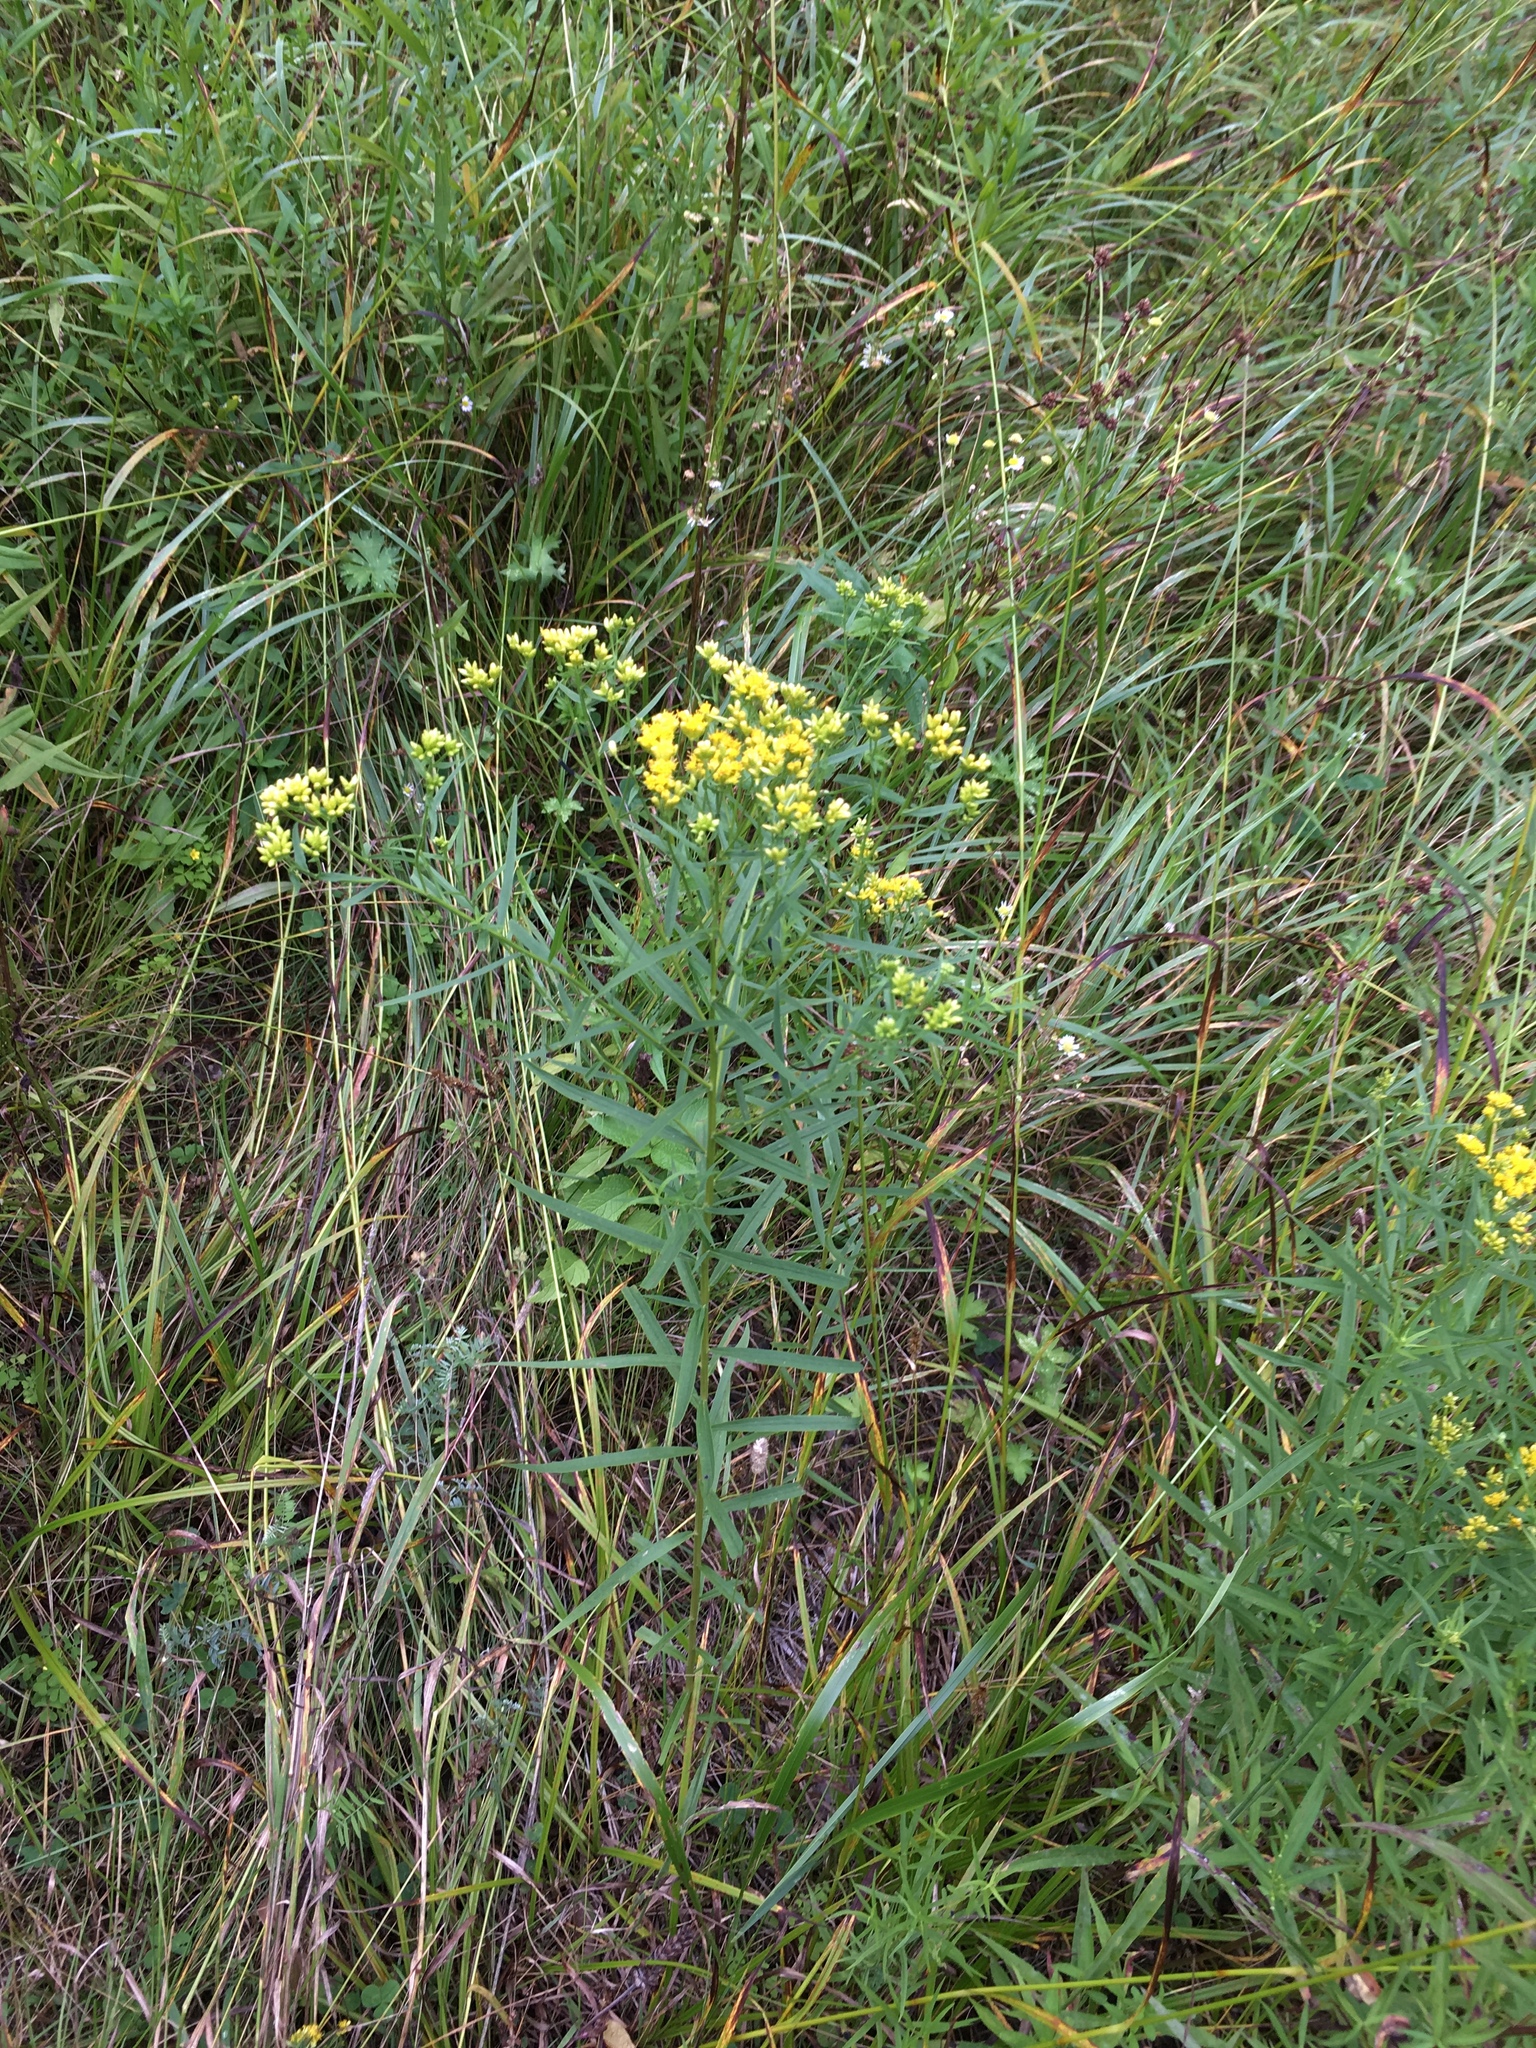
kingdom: Plantae
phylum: Tracheophyta
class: Magnoliopsida
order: Asterales
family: Asteraceae
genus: Euthamia
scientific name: Euthamia graminifolia
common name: Common goldentop
